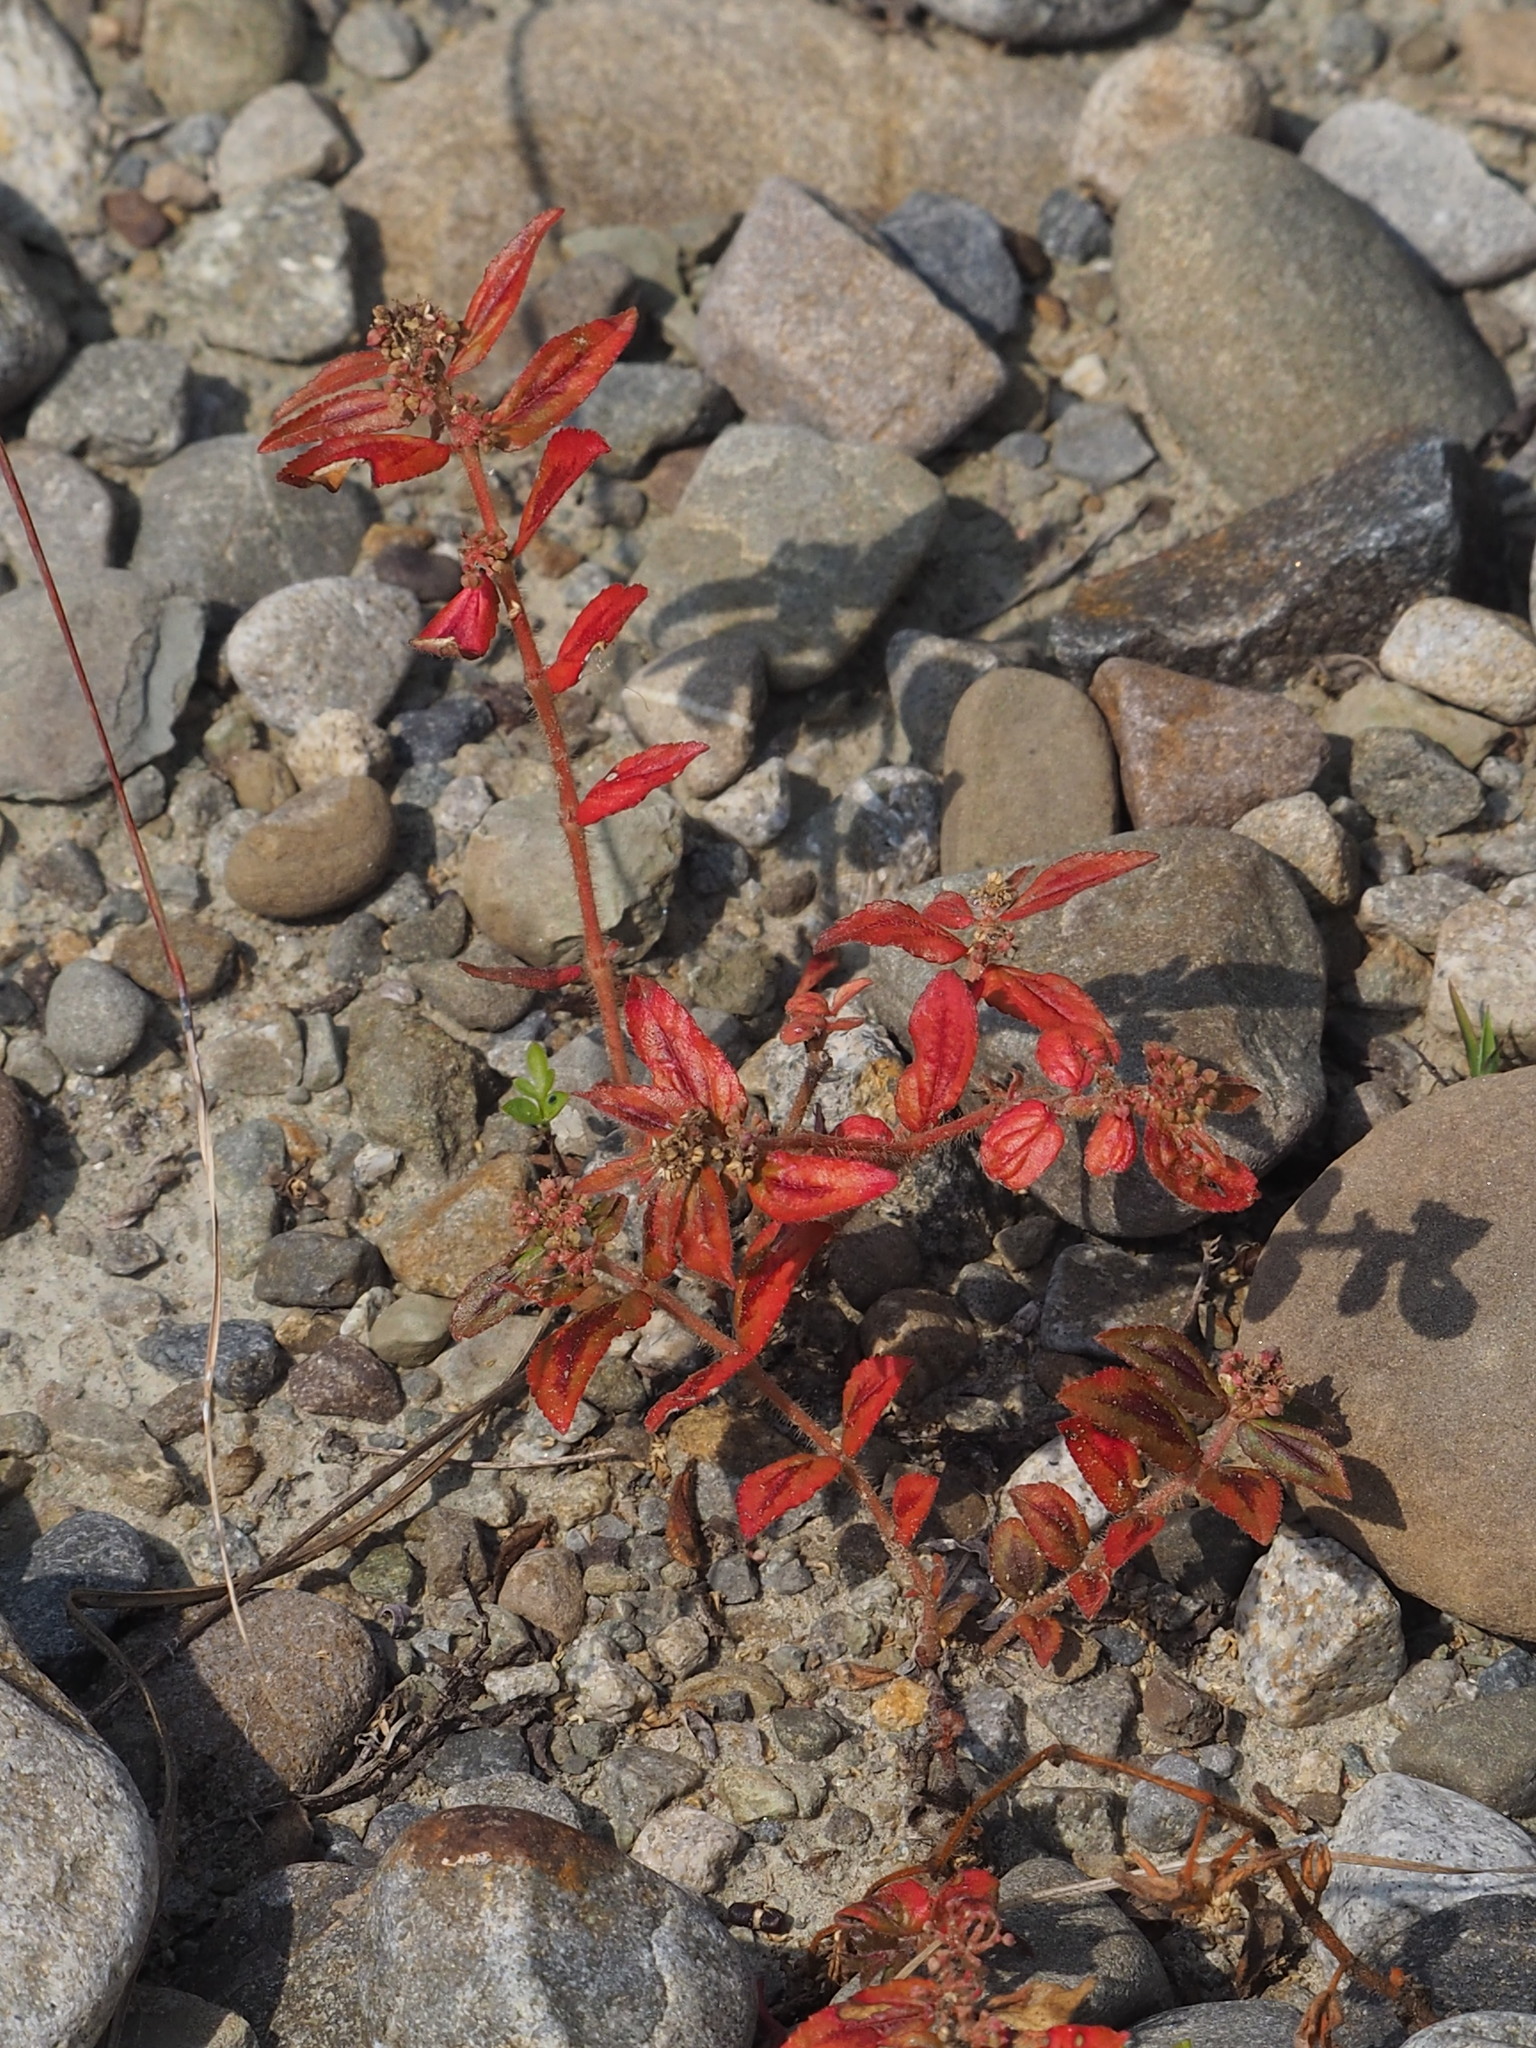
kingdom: Plantae
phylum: Tracheophyta
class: Magnoliopsida
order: Malpighiales
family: Euphorbiaceae
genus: Euphorbia
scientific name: Euphorbia hirta
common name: Pillpod sandmat
